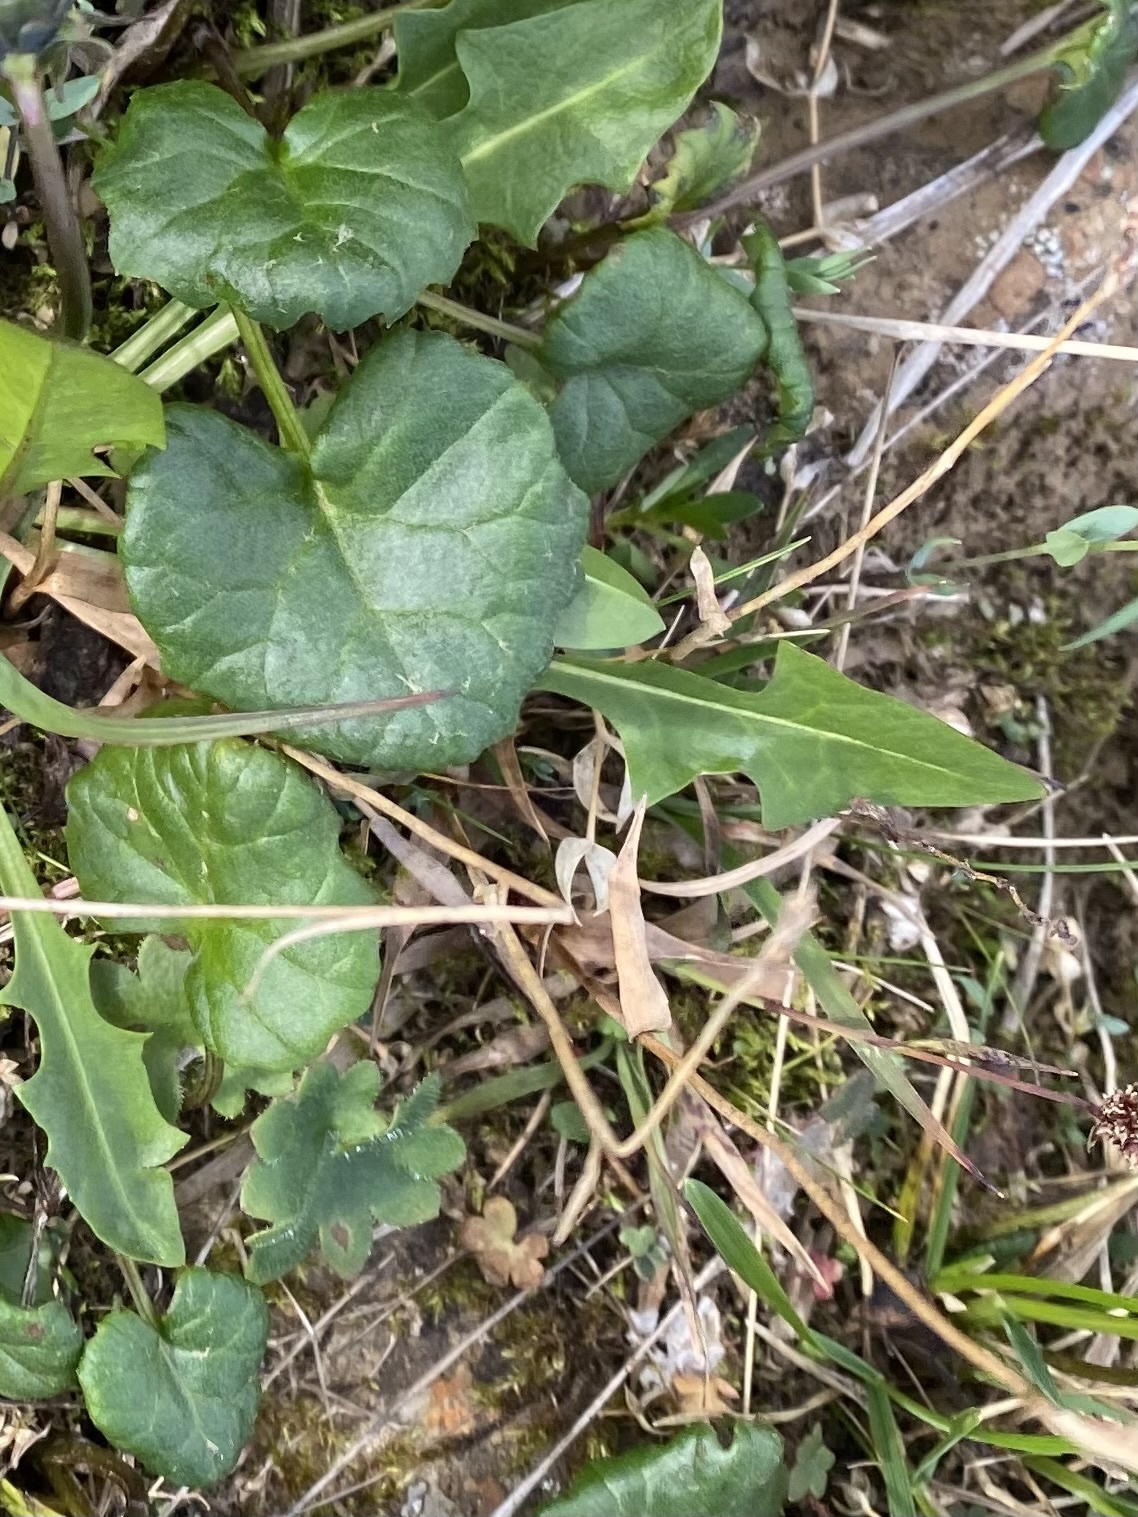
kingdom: Plantae
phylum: Tracheophyta
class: Magnoliopsida
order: Asterales
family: Asteraceae
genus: Endocellion
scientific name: Endocellion glaciale
